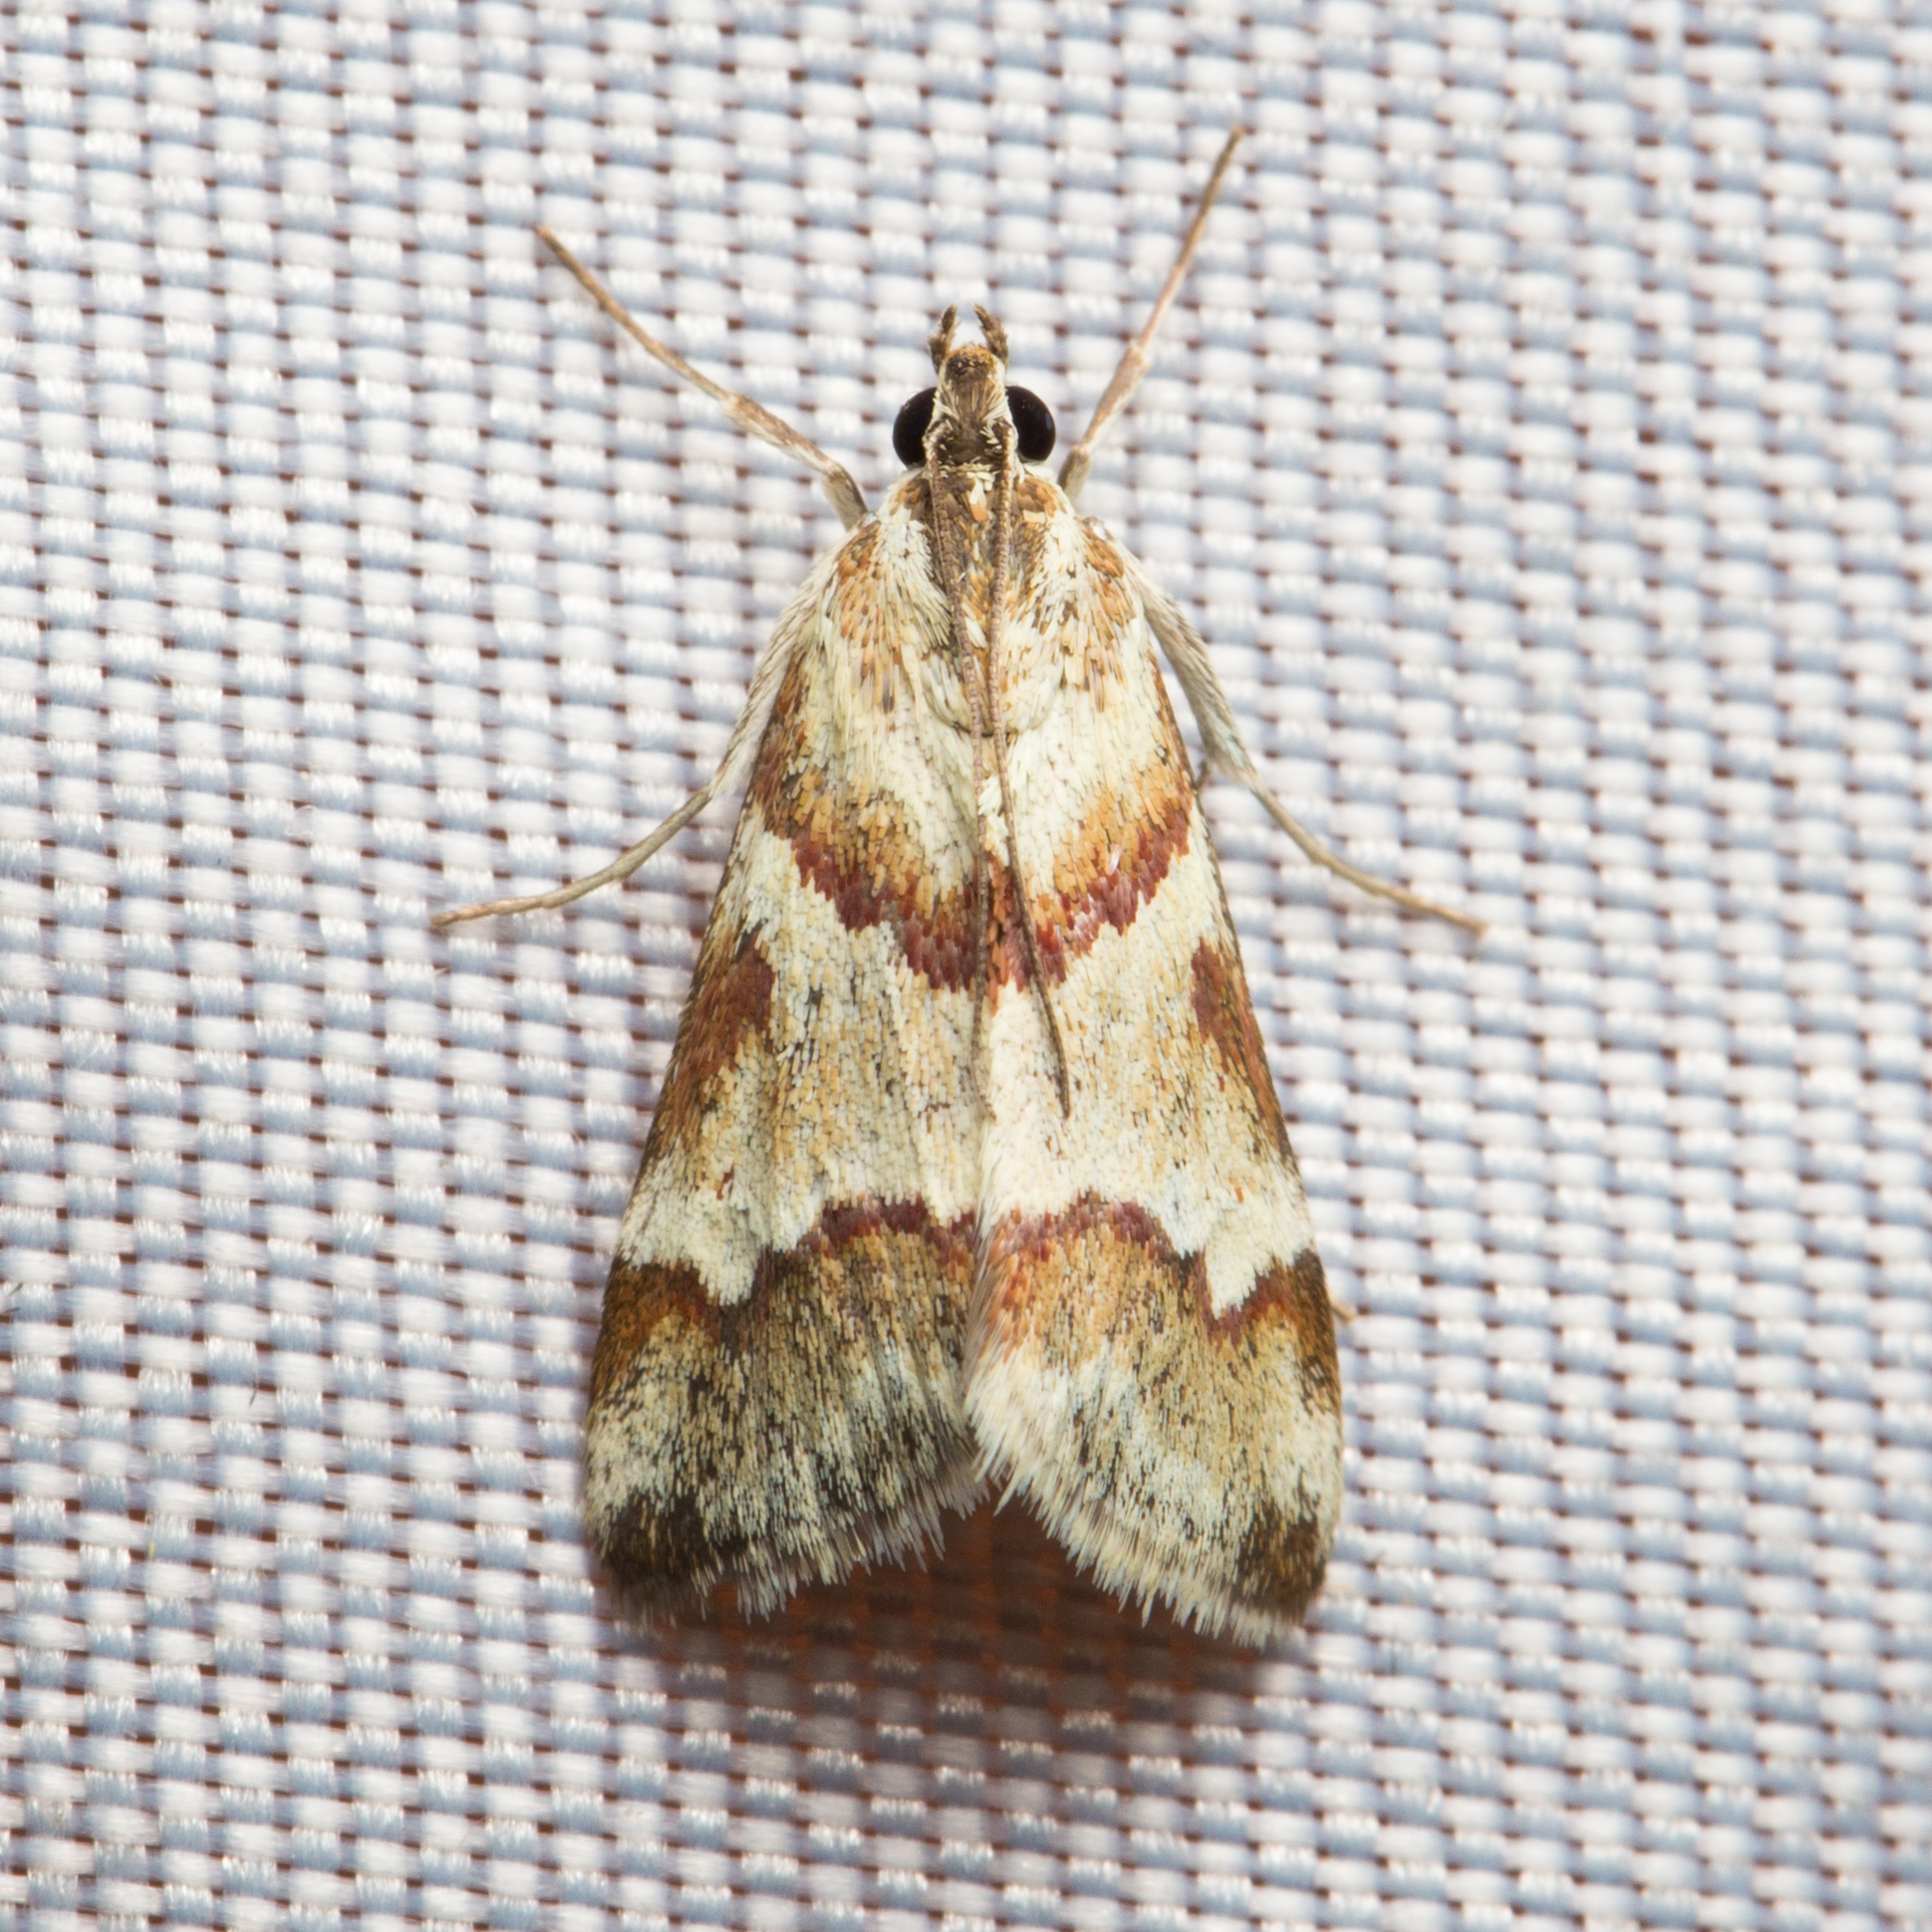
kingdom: Animalia
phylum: Arthropoda
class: Insecta
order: Lepidoptera
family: Crambidae
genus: Noctuelia
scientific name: Noctuelia Mimoschinia rufofascialis
